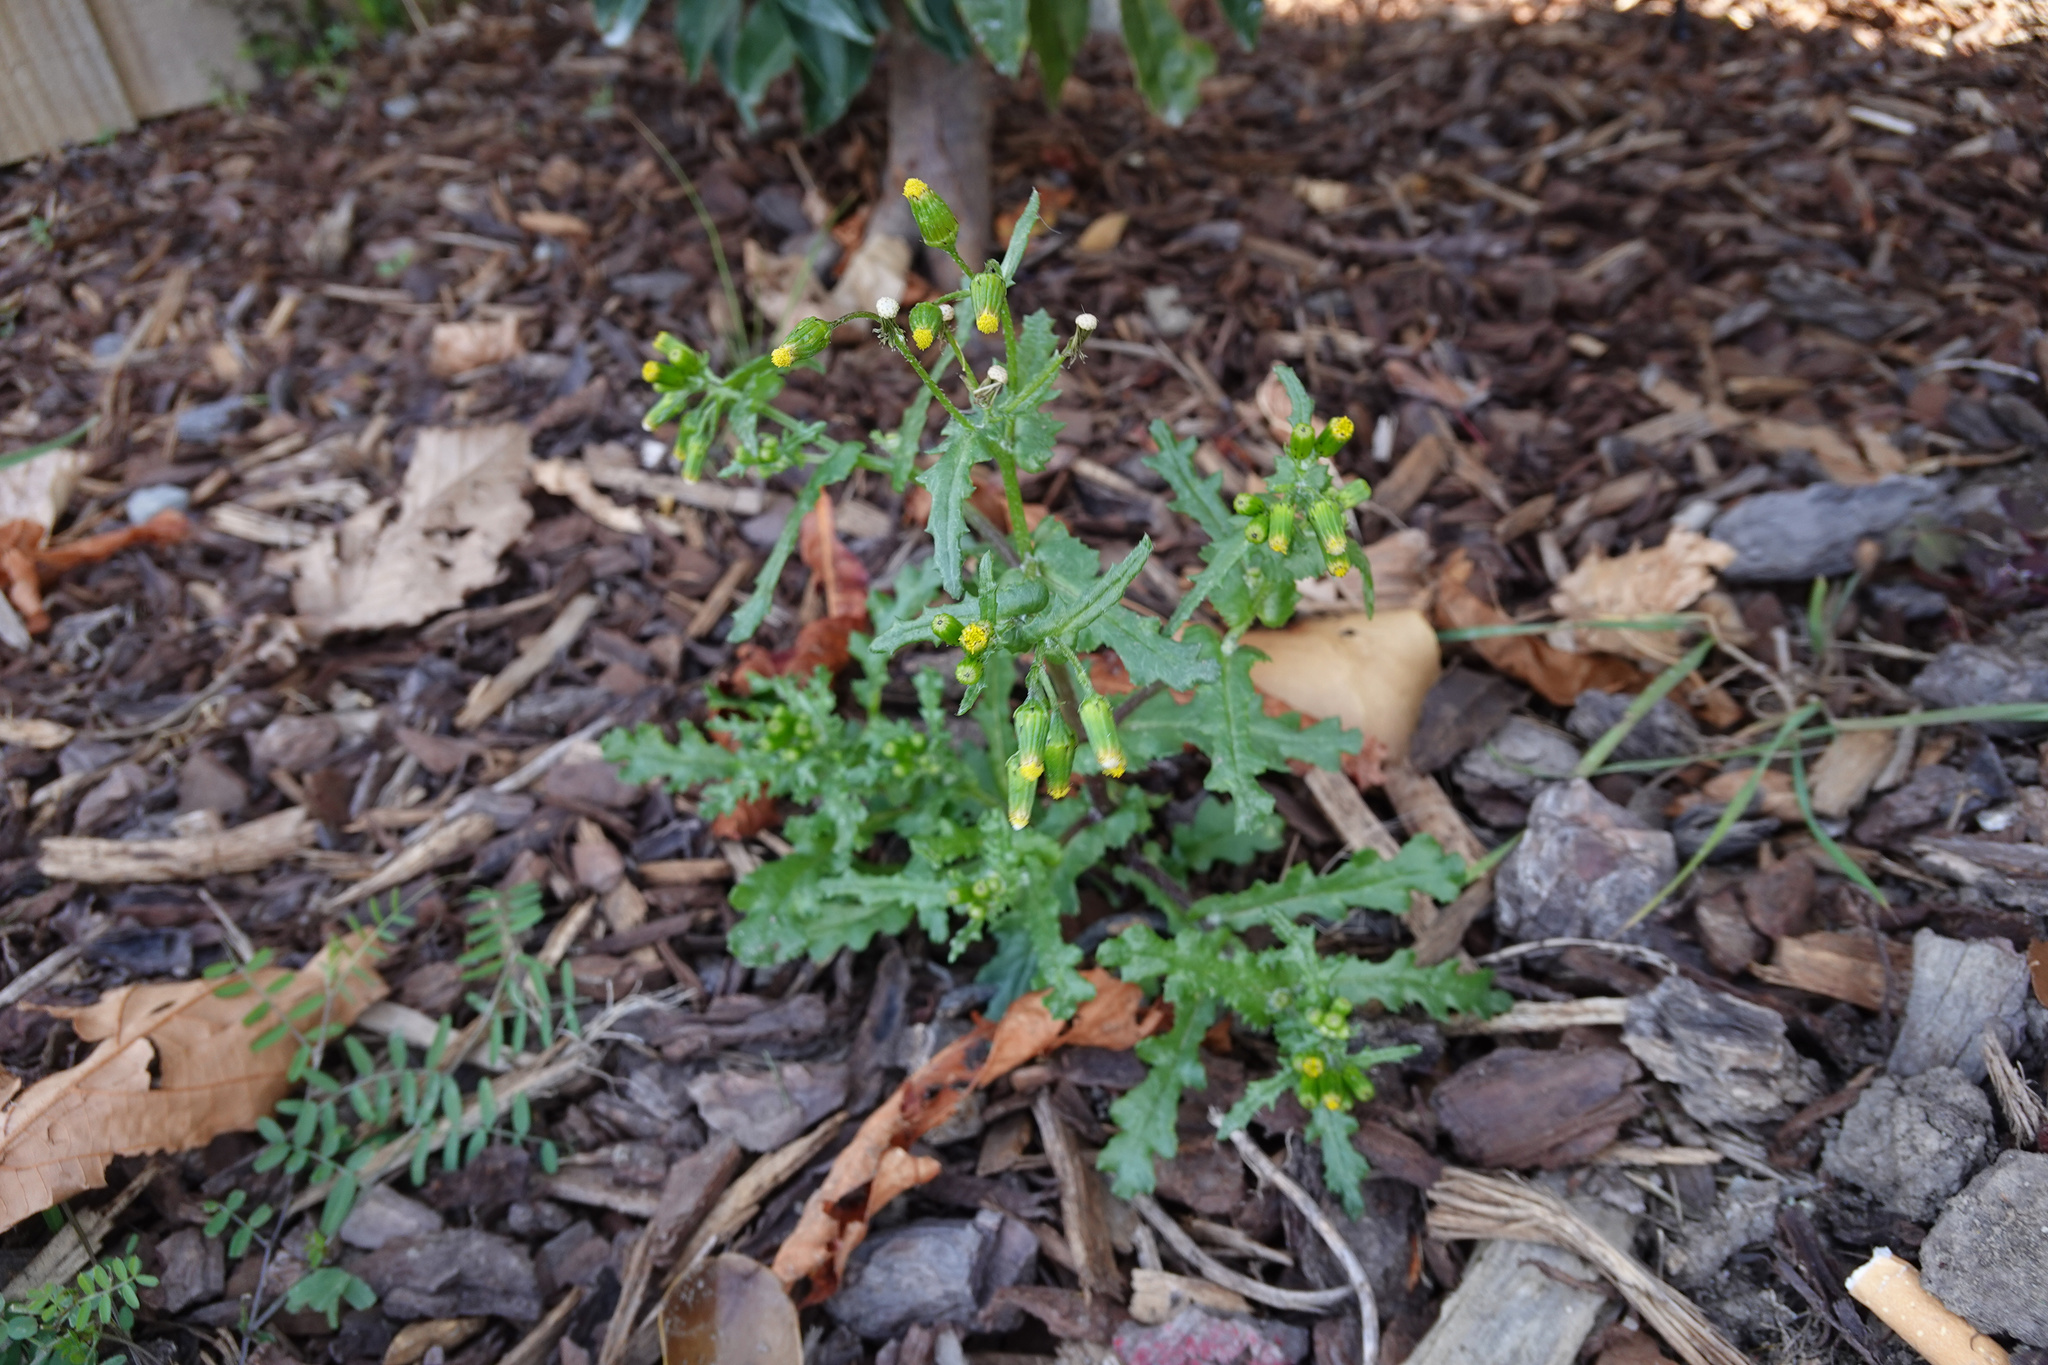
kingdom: Plantae
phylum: Tracheophyta
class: Magnoliopsida
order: Asterales
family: Asteraceae
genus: Senecio
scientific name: Senecio vulgaris
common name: Old-man-in-the-spring
